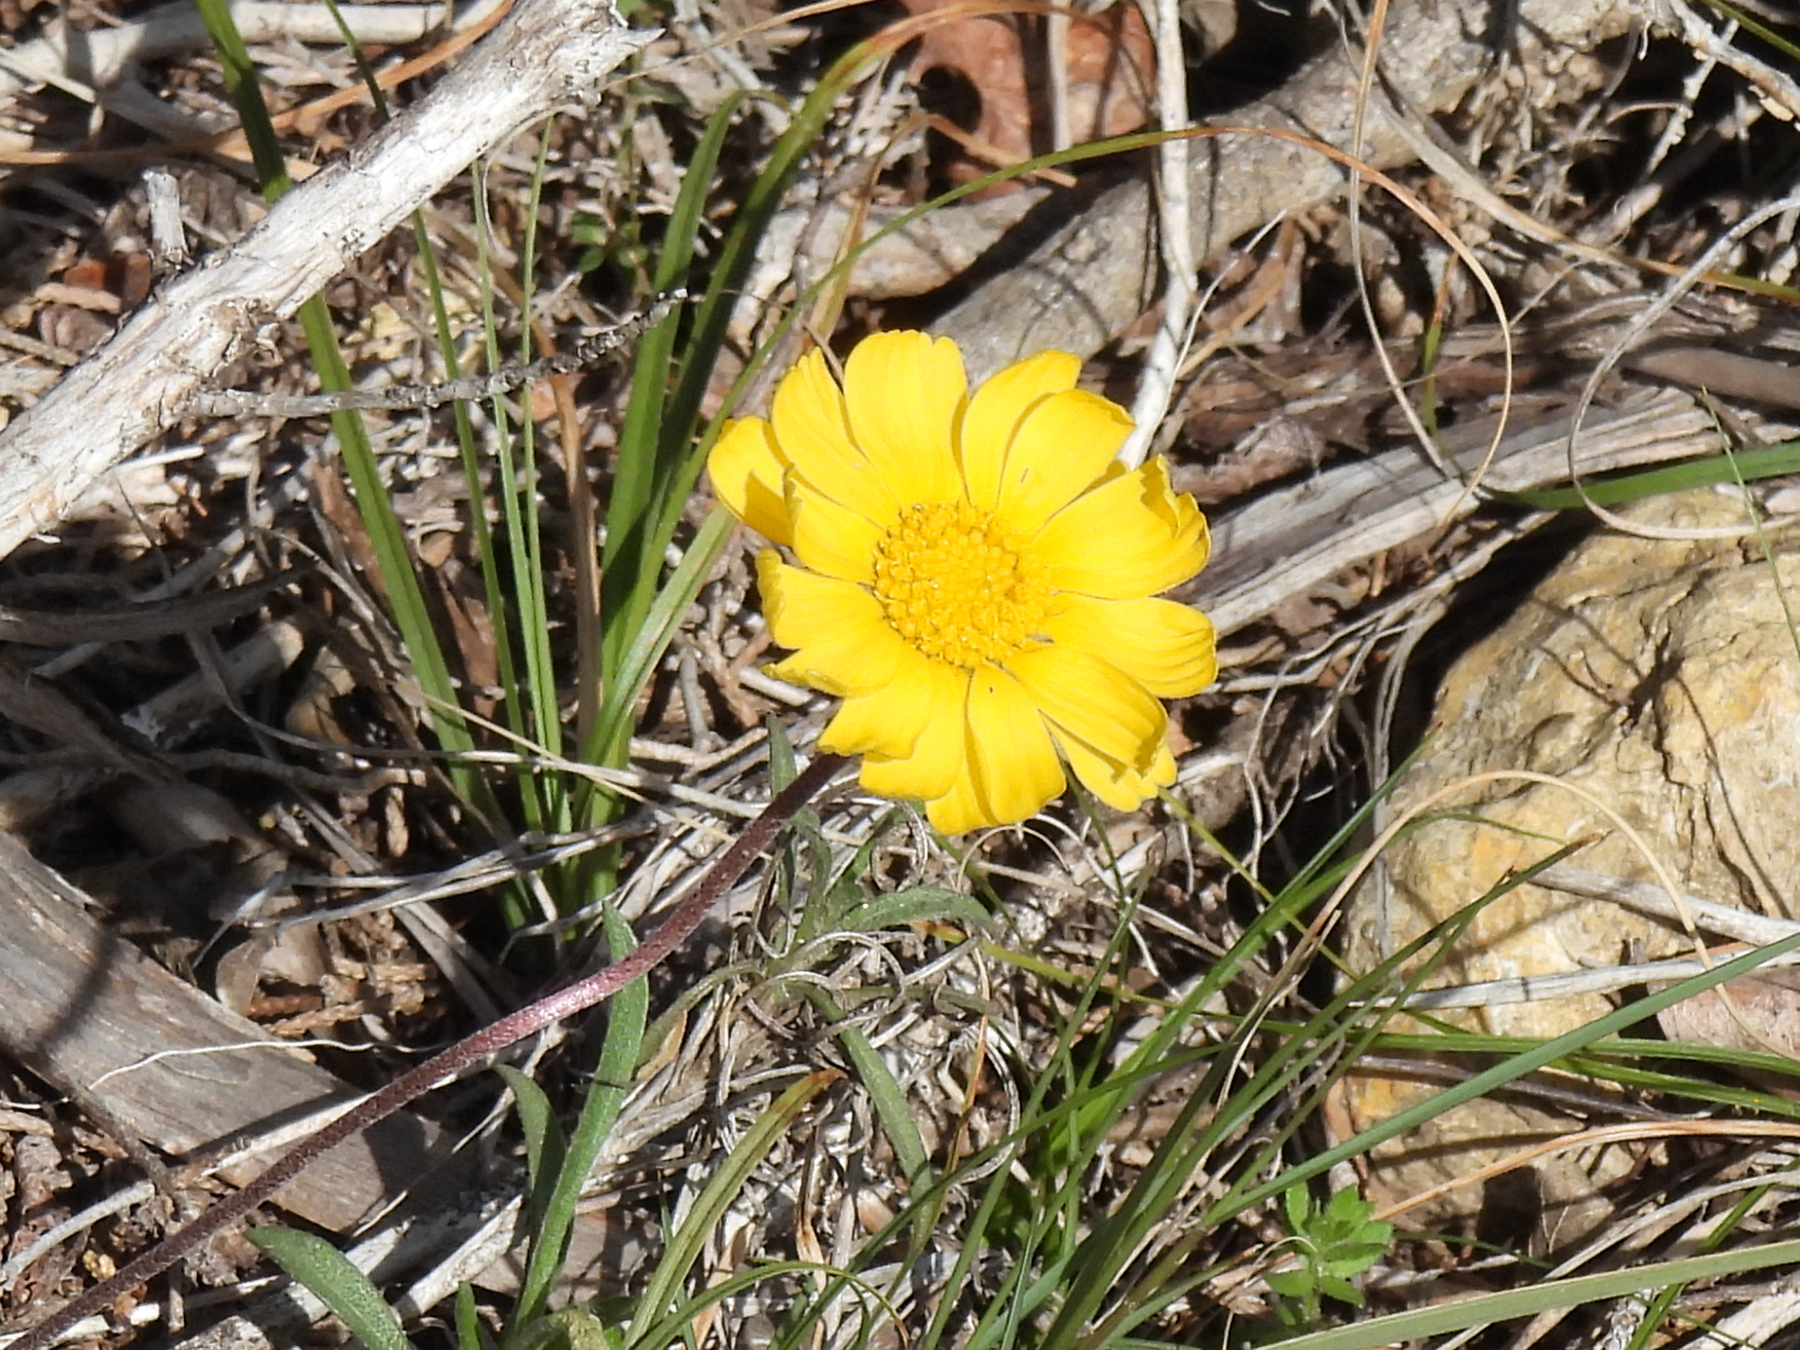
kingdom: Plantae
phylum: Tracheophyta
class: Magnoliopsida
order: Asterales
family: Asteraceae
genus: Tetraneuris
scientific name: Tetraneuris scaposa
